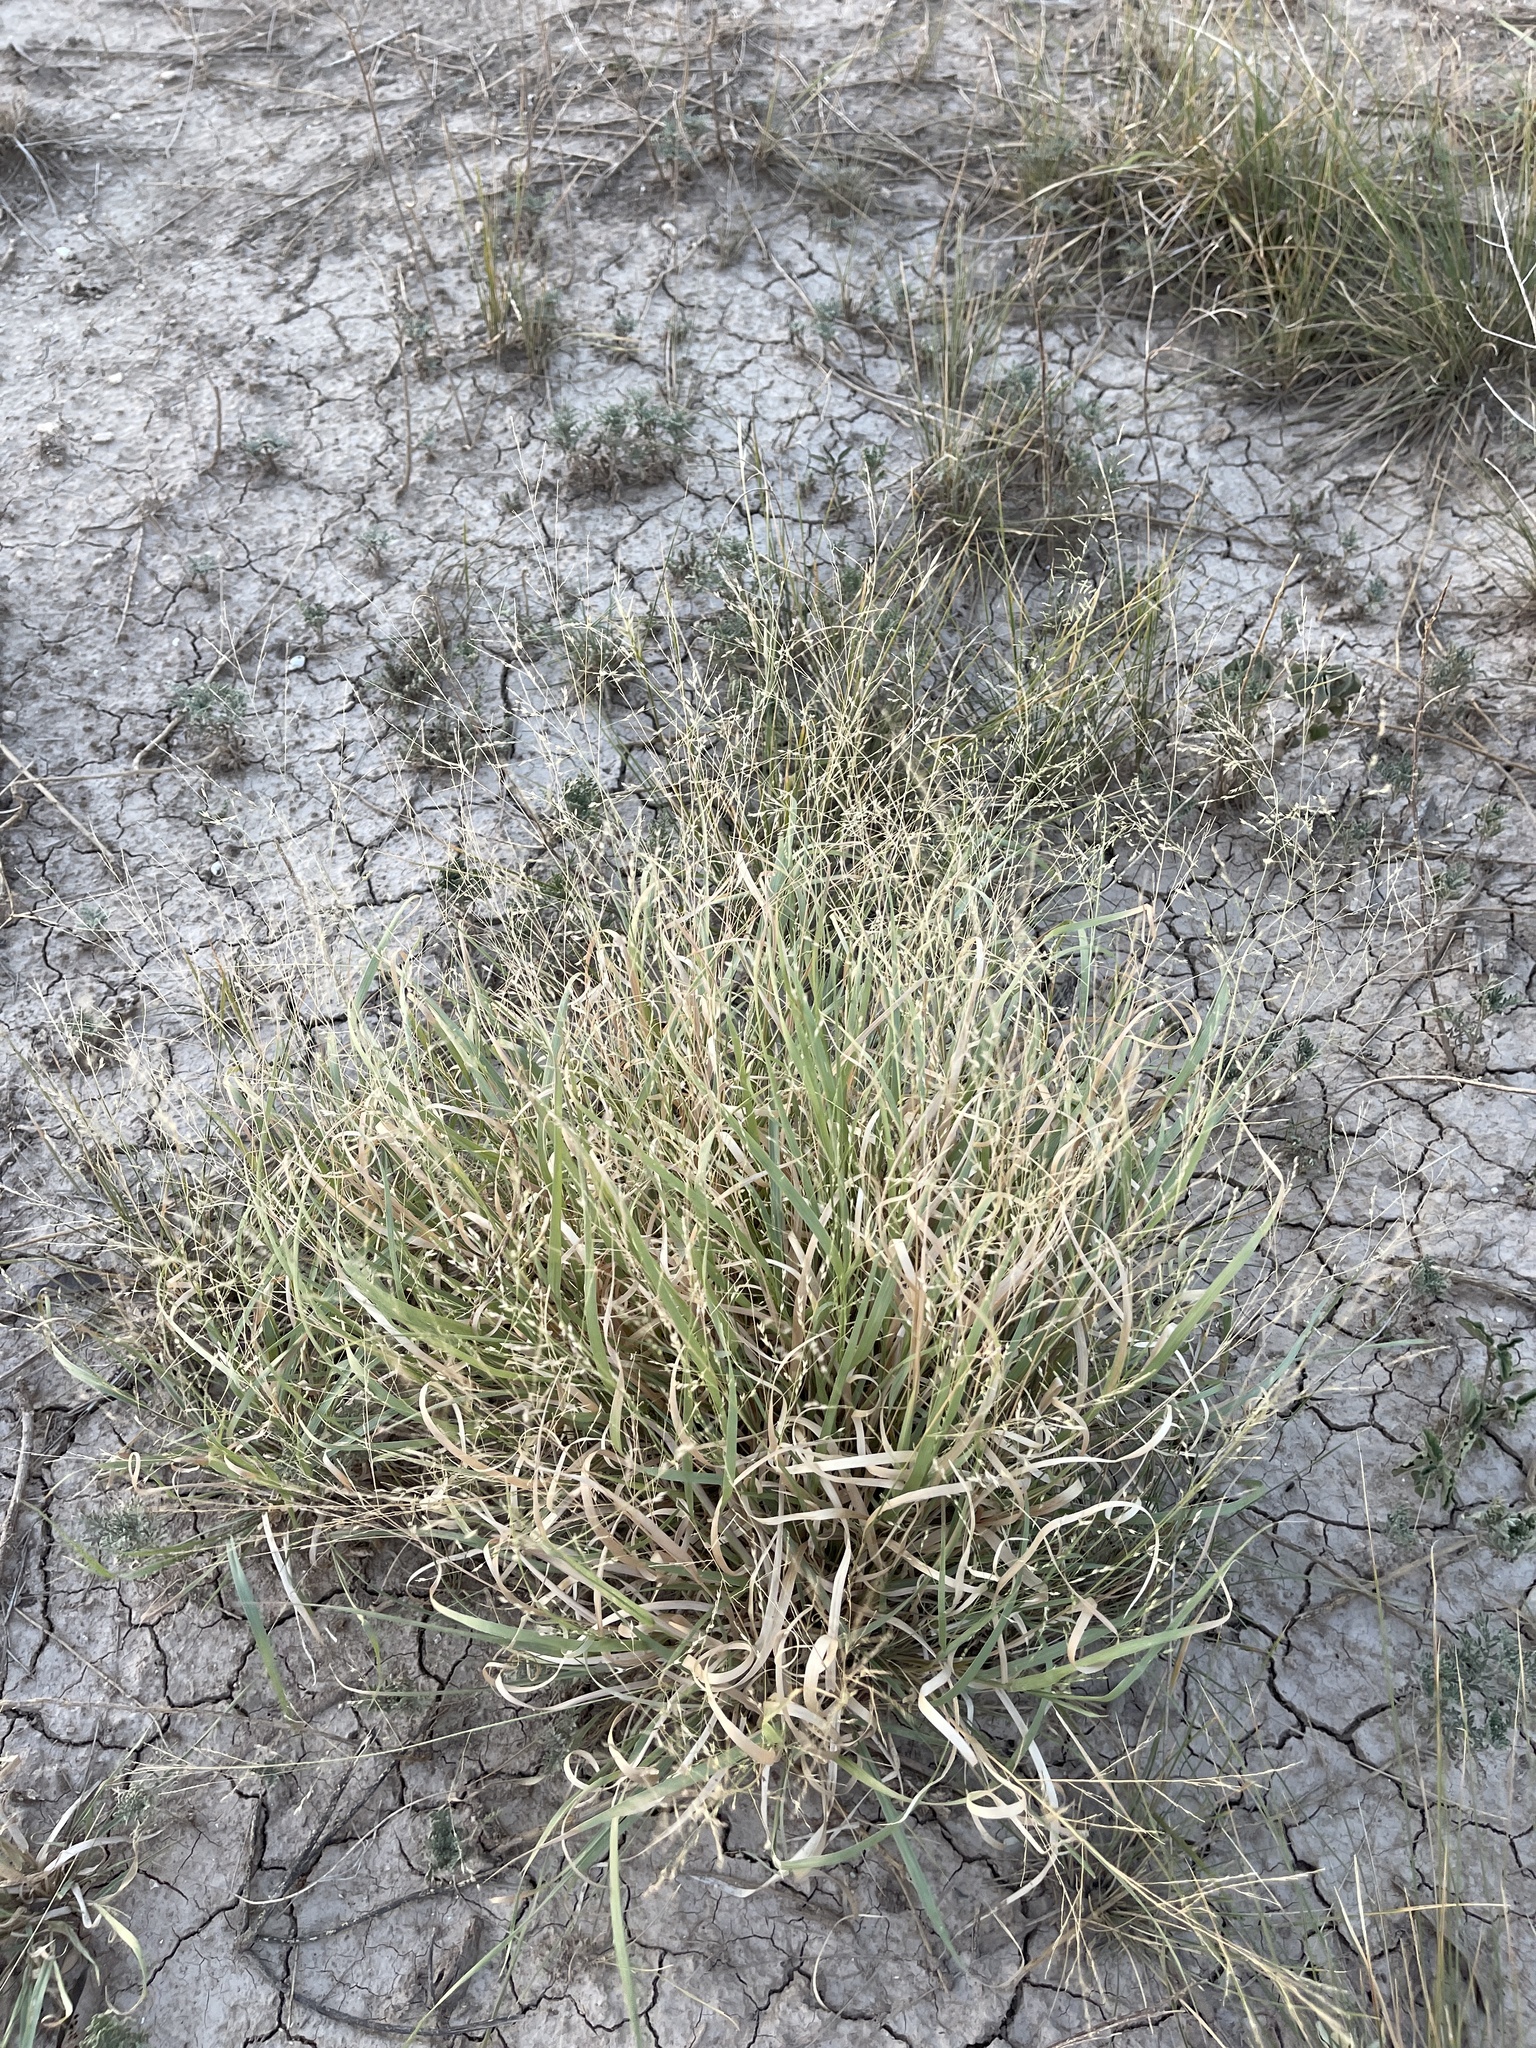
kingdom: Plantae
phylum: Tracheophyta
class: Liliopsida
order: Poales
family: Poaceae
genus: Panicum
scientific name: Panicum hallii
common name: Hall's witchgrass
